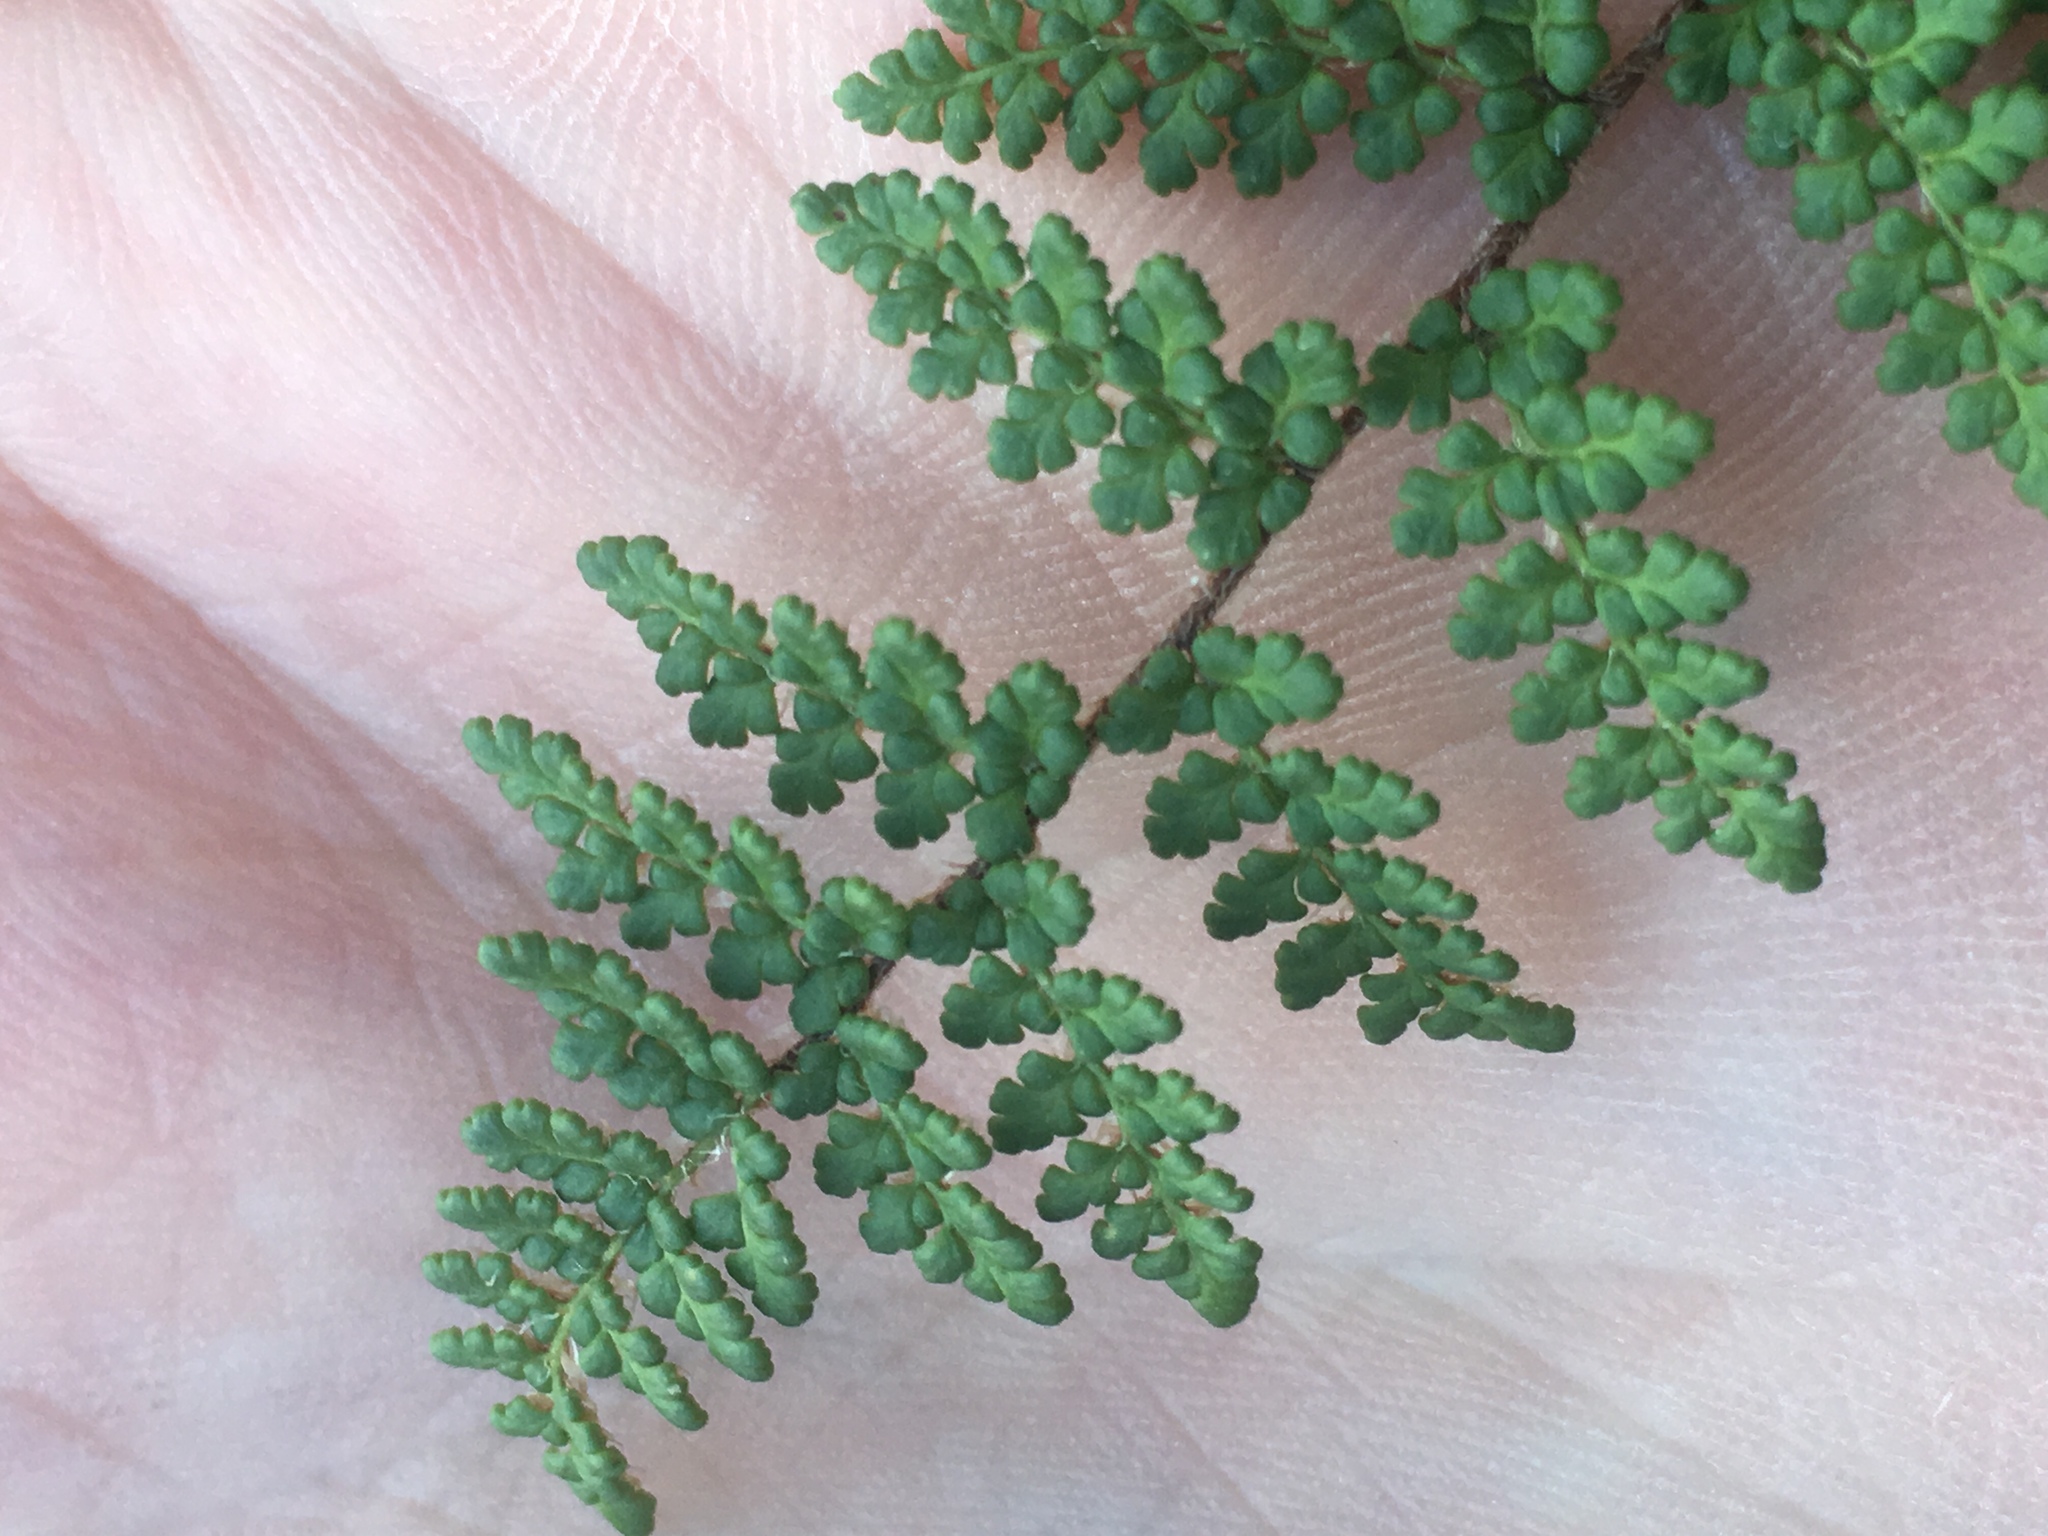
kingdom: Plantae
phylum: Tracheophyta
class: Polypodiopsida
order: Polypodiales
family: Pteridaceae
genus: Myriopteris
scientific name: Myriopteris fendleri
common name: Fendler's lip fern
